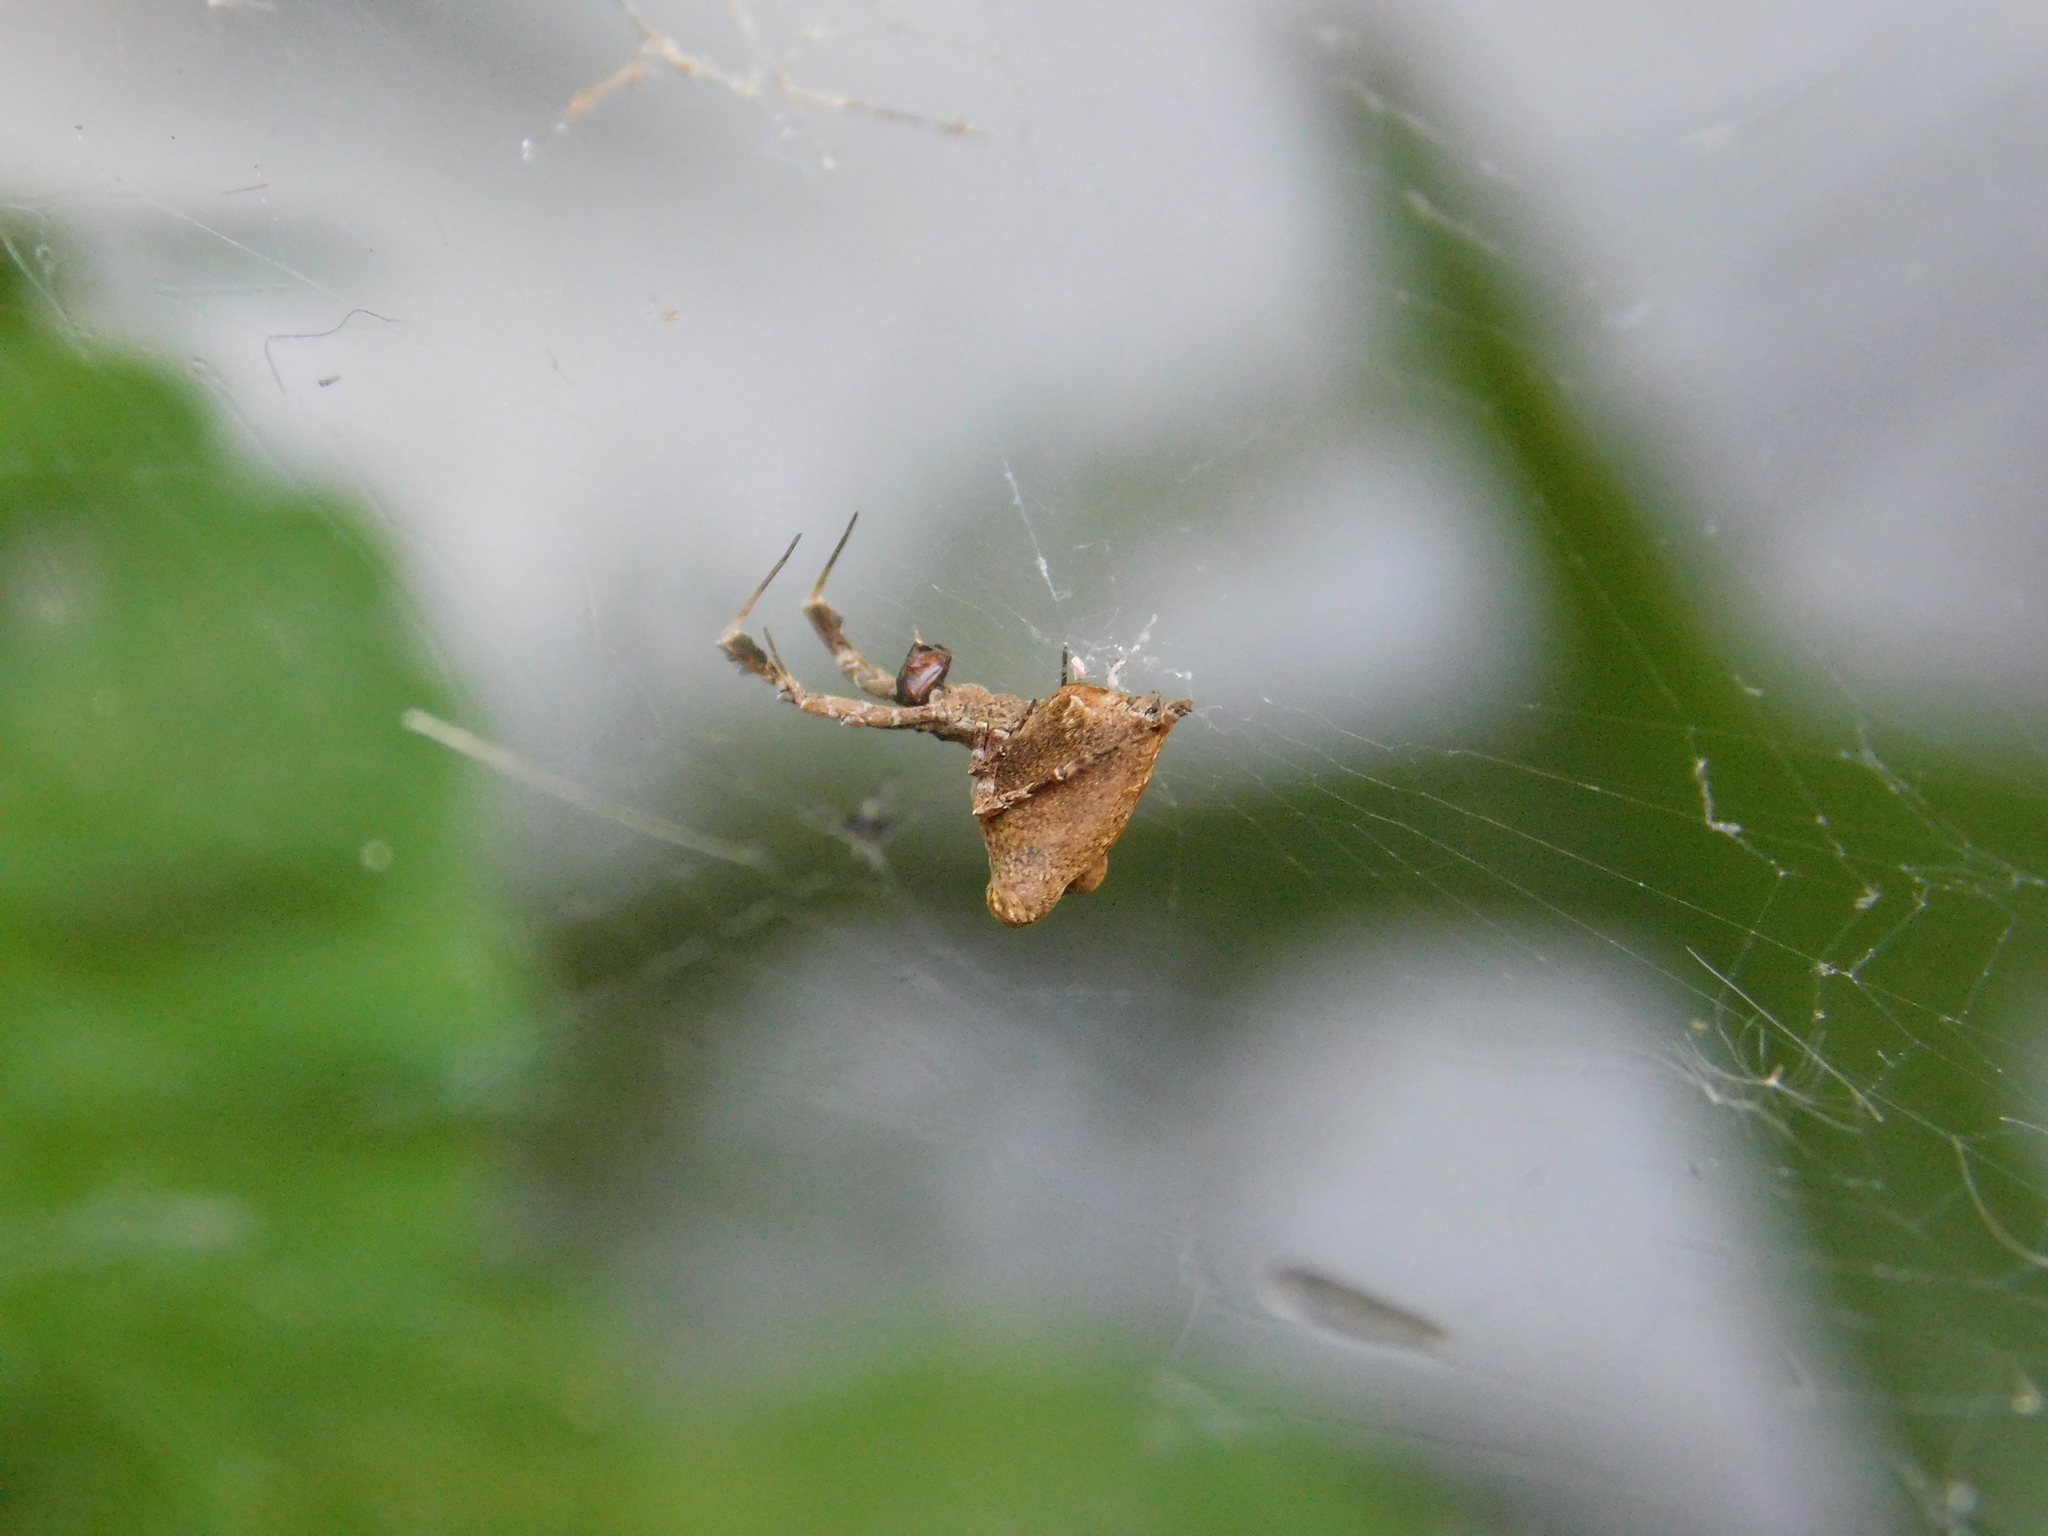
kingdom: Animalia
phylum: Arthropoda
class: Arachnida
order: Araneae
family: Uloboridae
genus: Uloborus
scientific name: Uloborus plumipes
